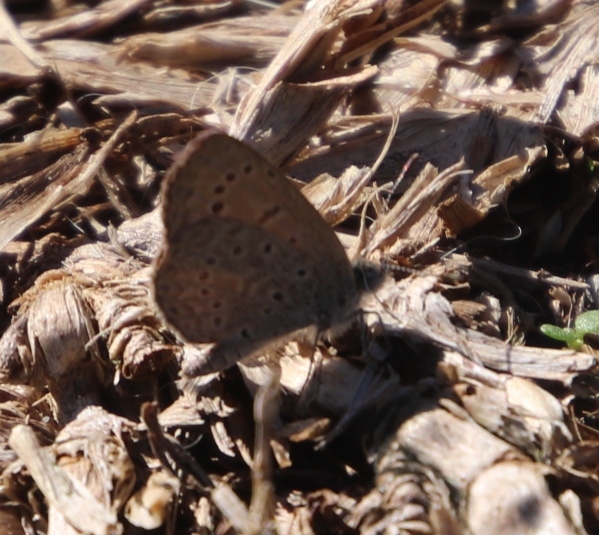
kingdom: Animalia
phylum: Arthropoda
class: Insecta
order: Lepidoptera
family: Lycaenidae
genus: Zizeeria
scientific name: Zizeeria knysna
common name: African grass blue
